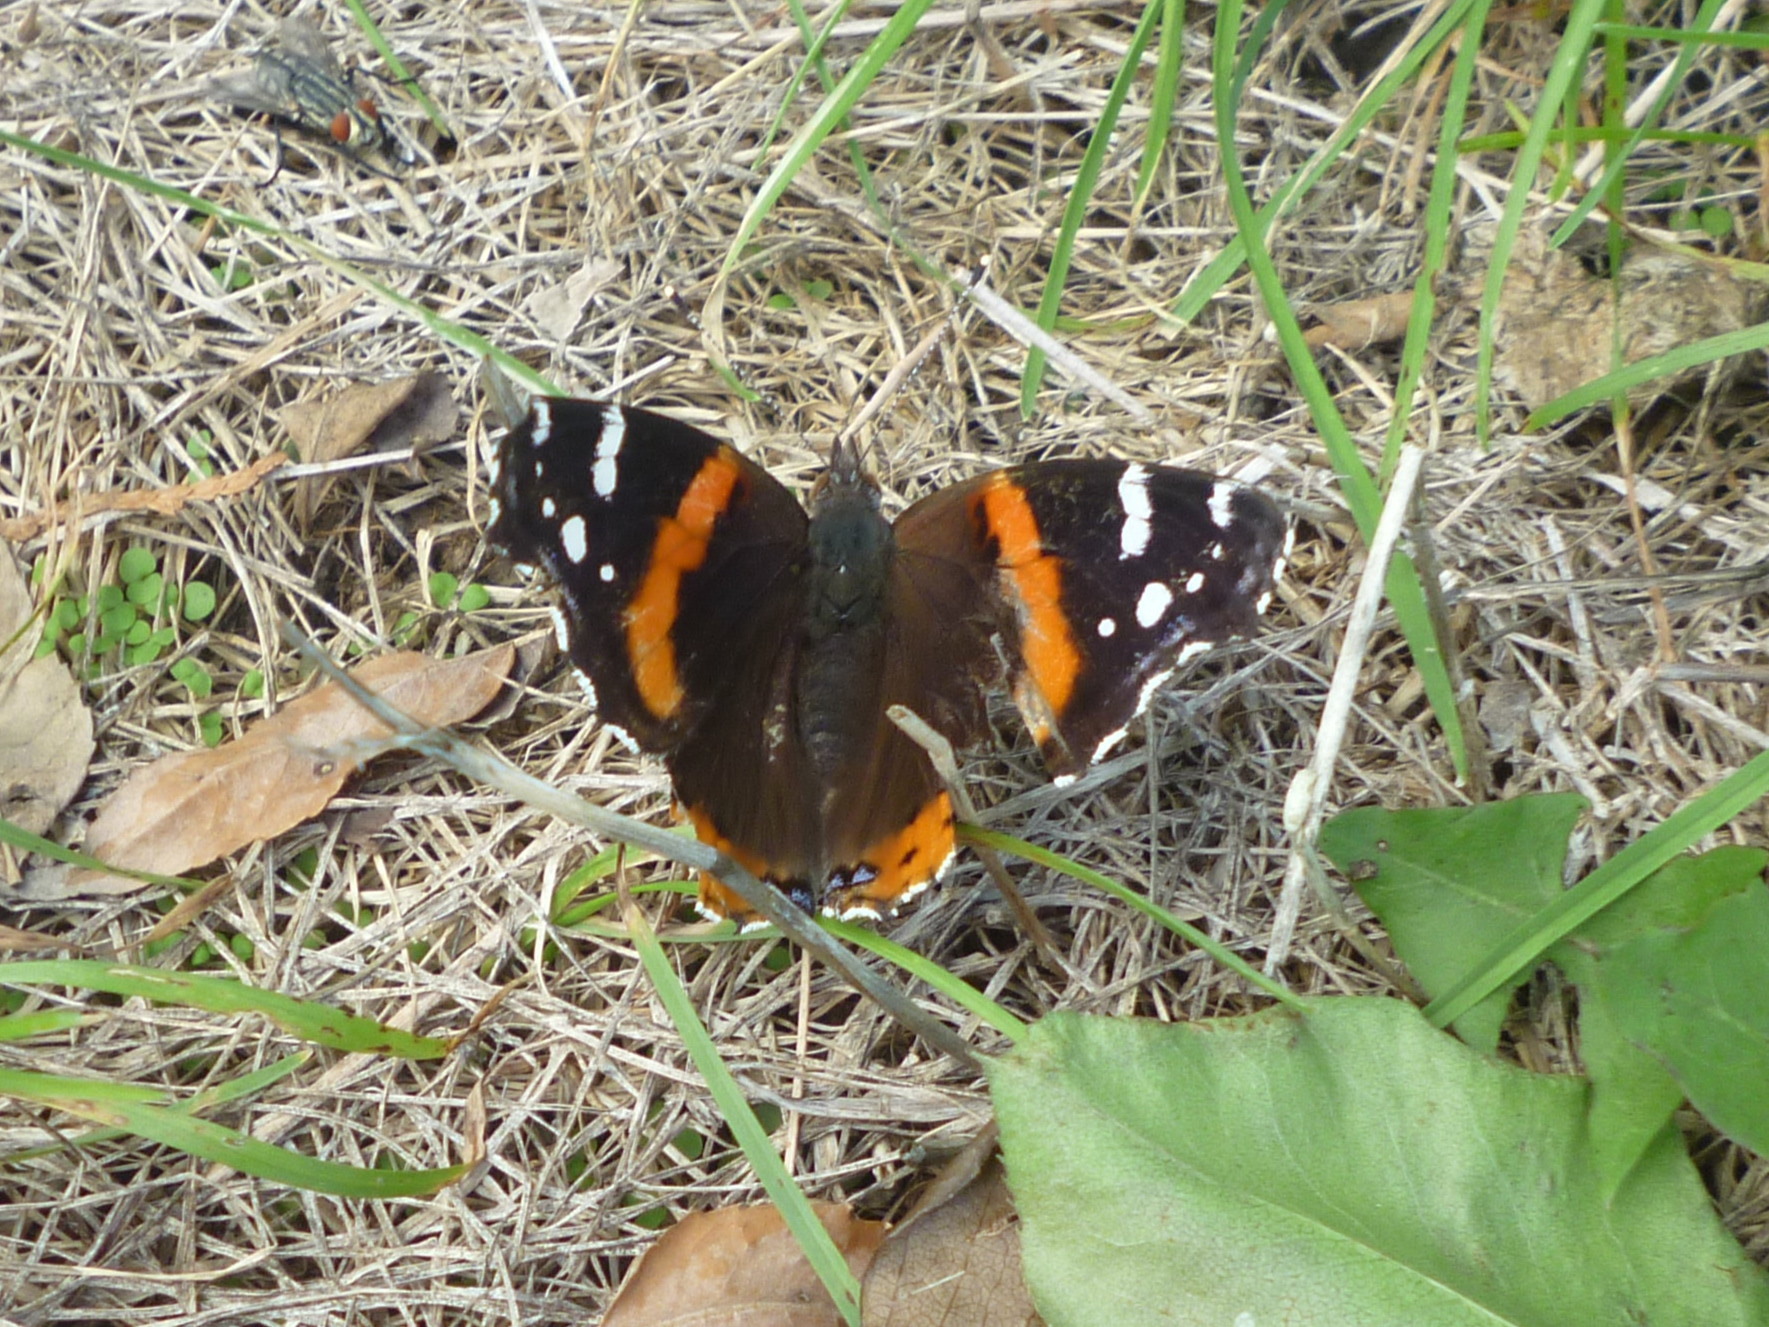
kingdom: Animalia
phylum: Arthropoda
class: Insecta
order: Lepidoptera
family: Nymphalidae
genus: Vanessa
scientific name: Vanessa atalanta
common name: Red admiral
